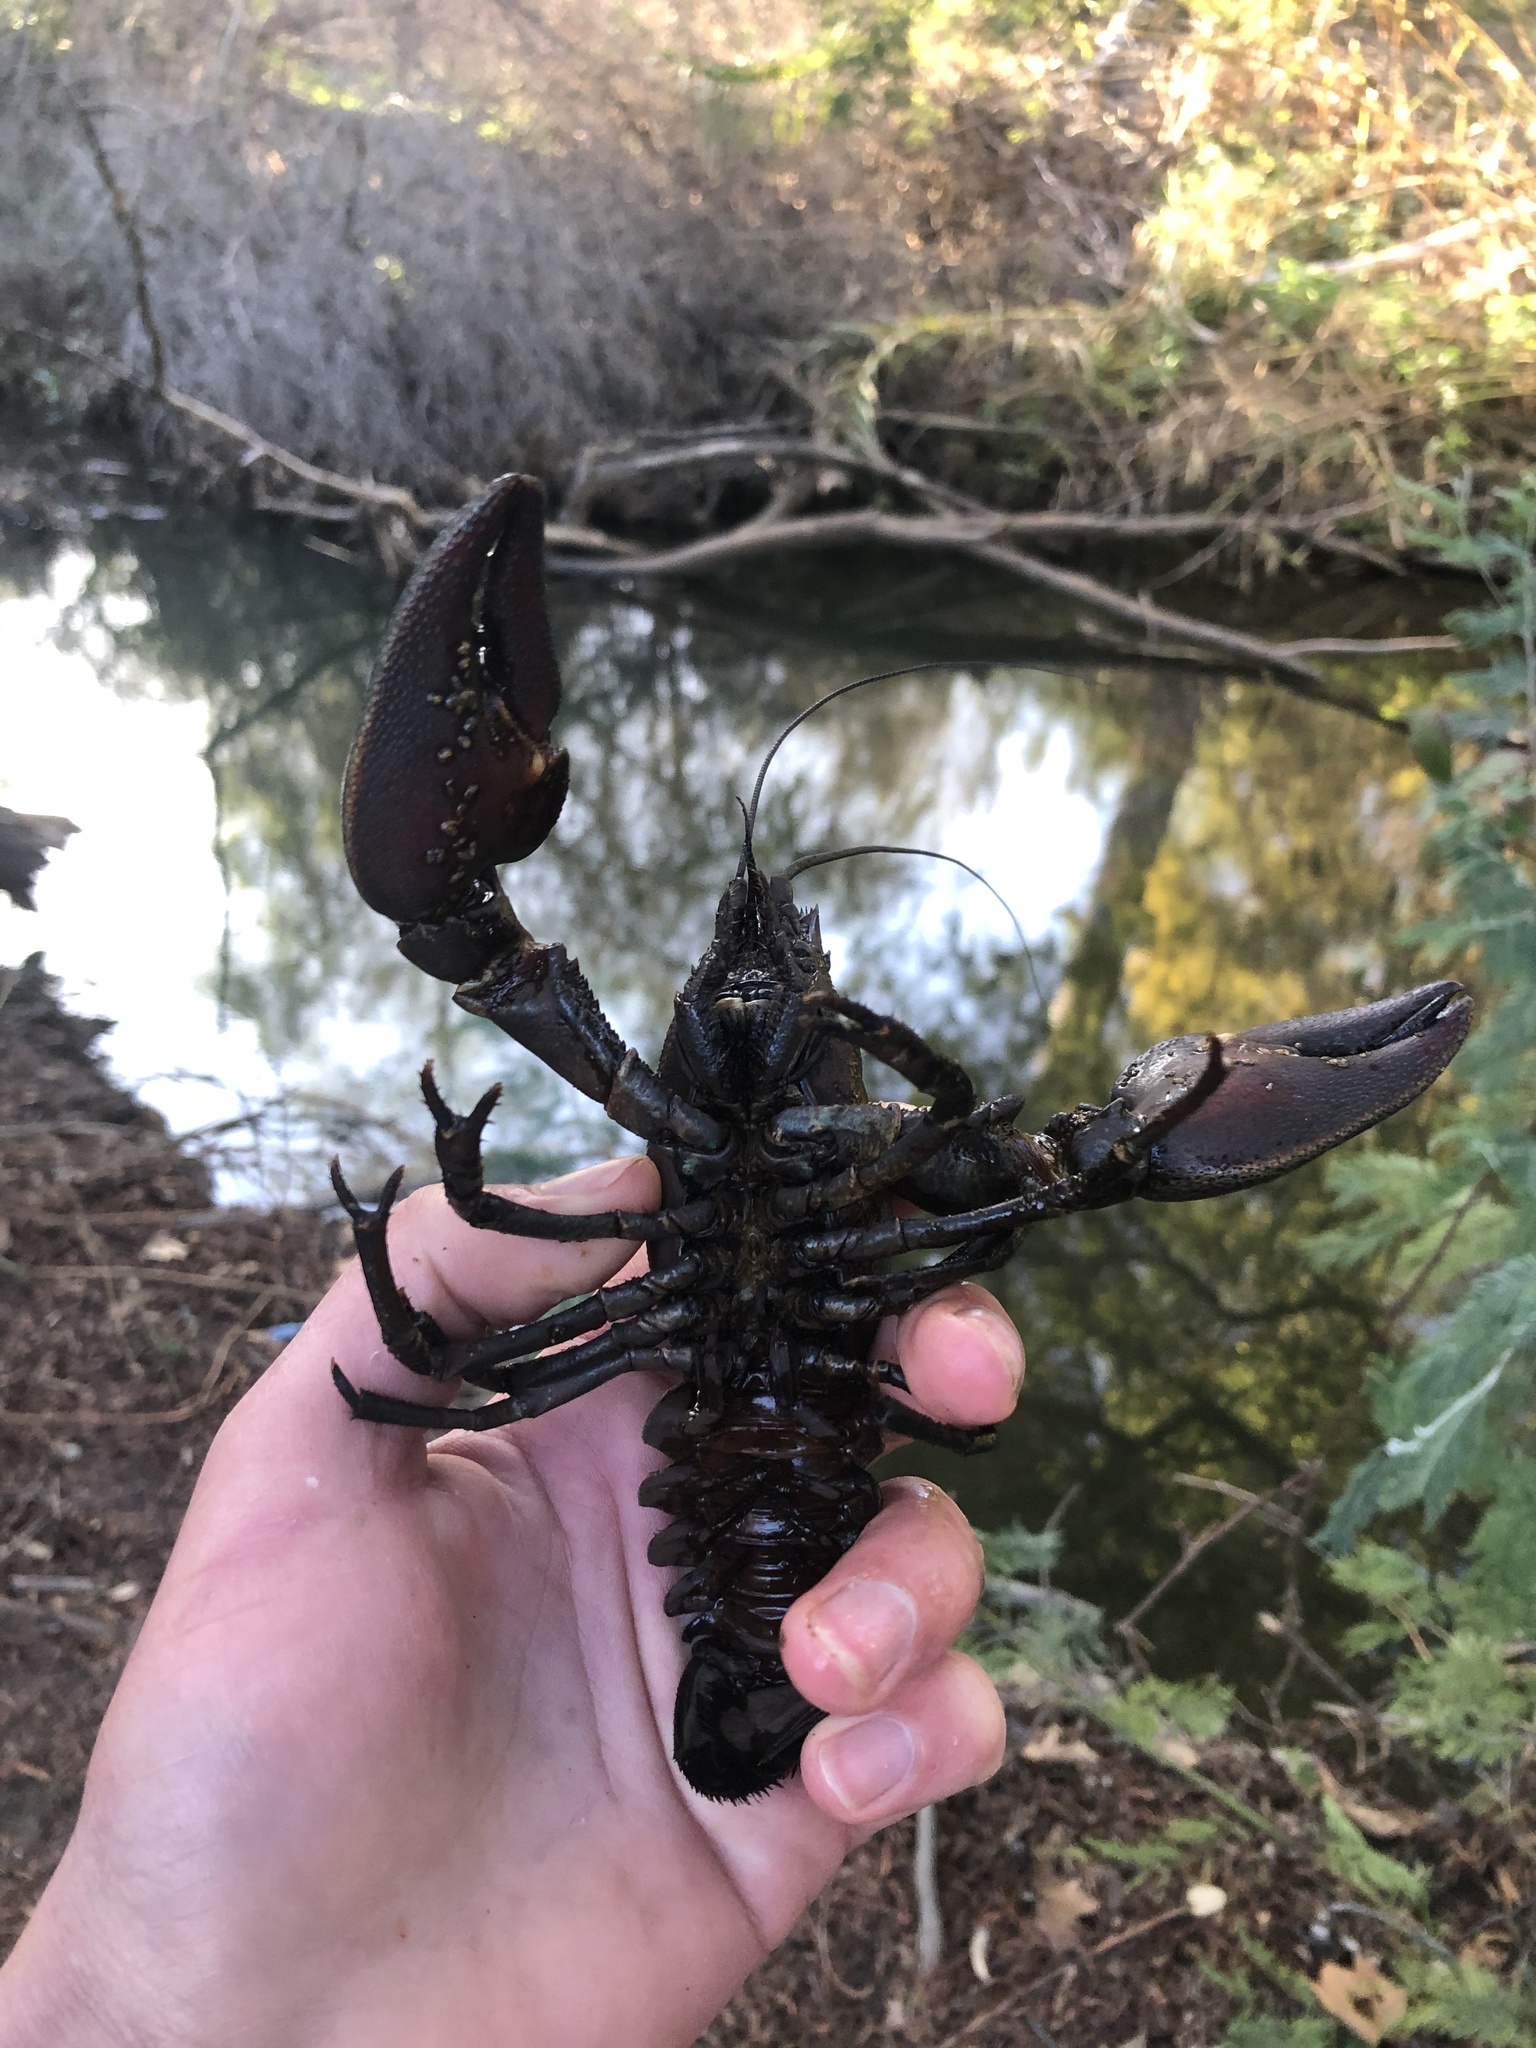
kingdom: Animalia
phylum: Arthropoda
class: Malacostraca
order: Decapoda
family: Astacidae
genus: Pacifastacus
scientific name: Pacifastacus leniusculus
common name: Signal crayfish
